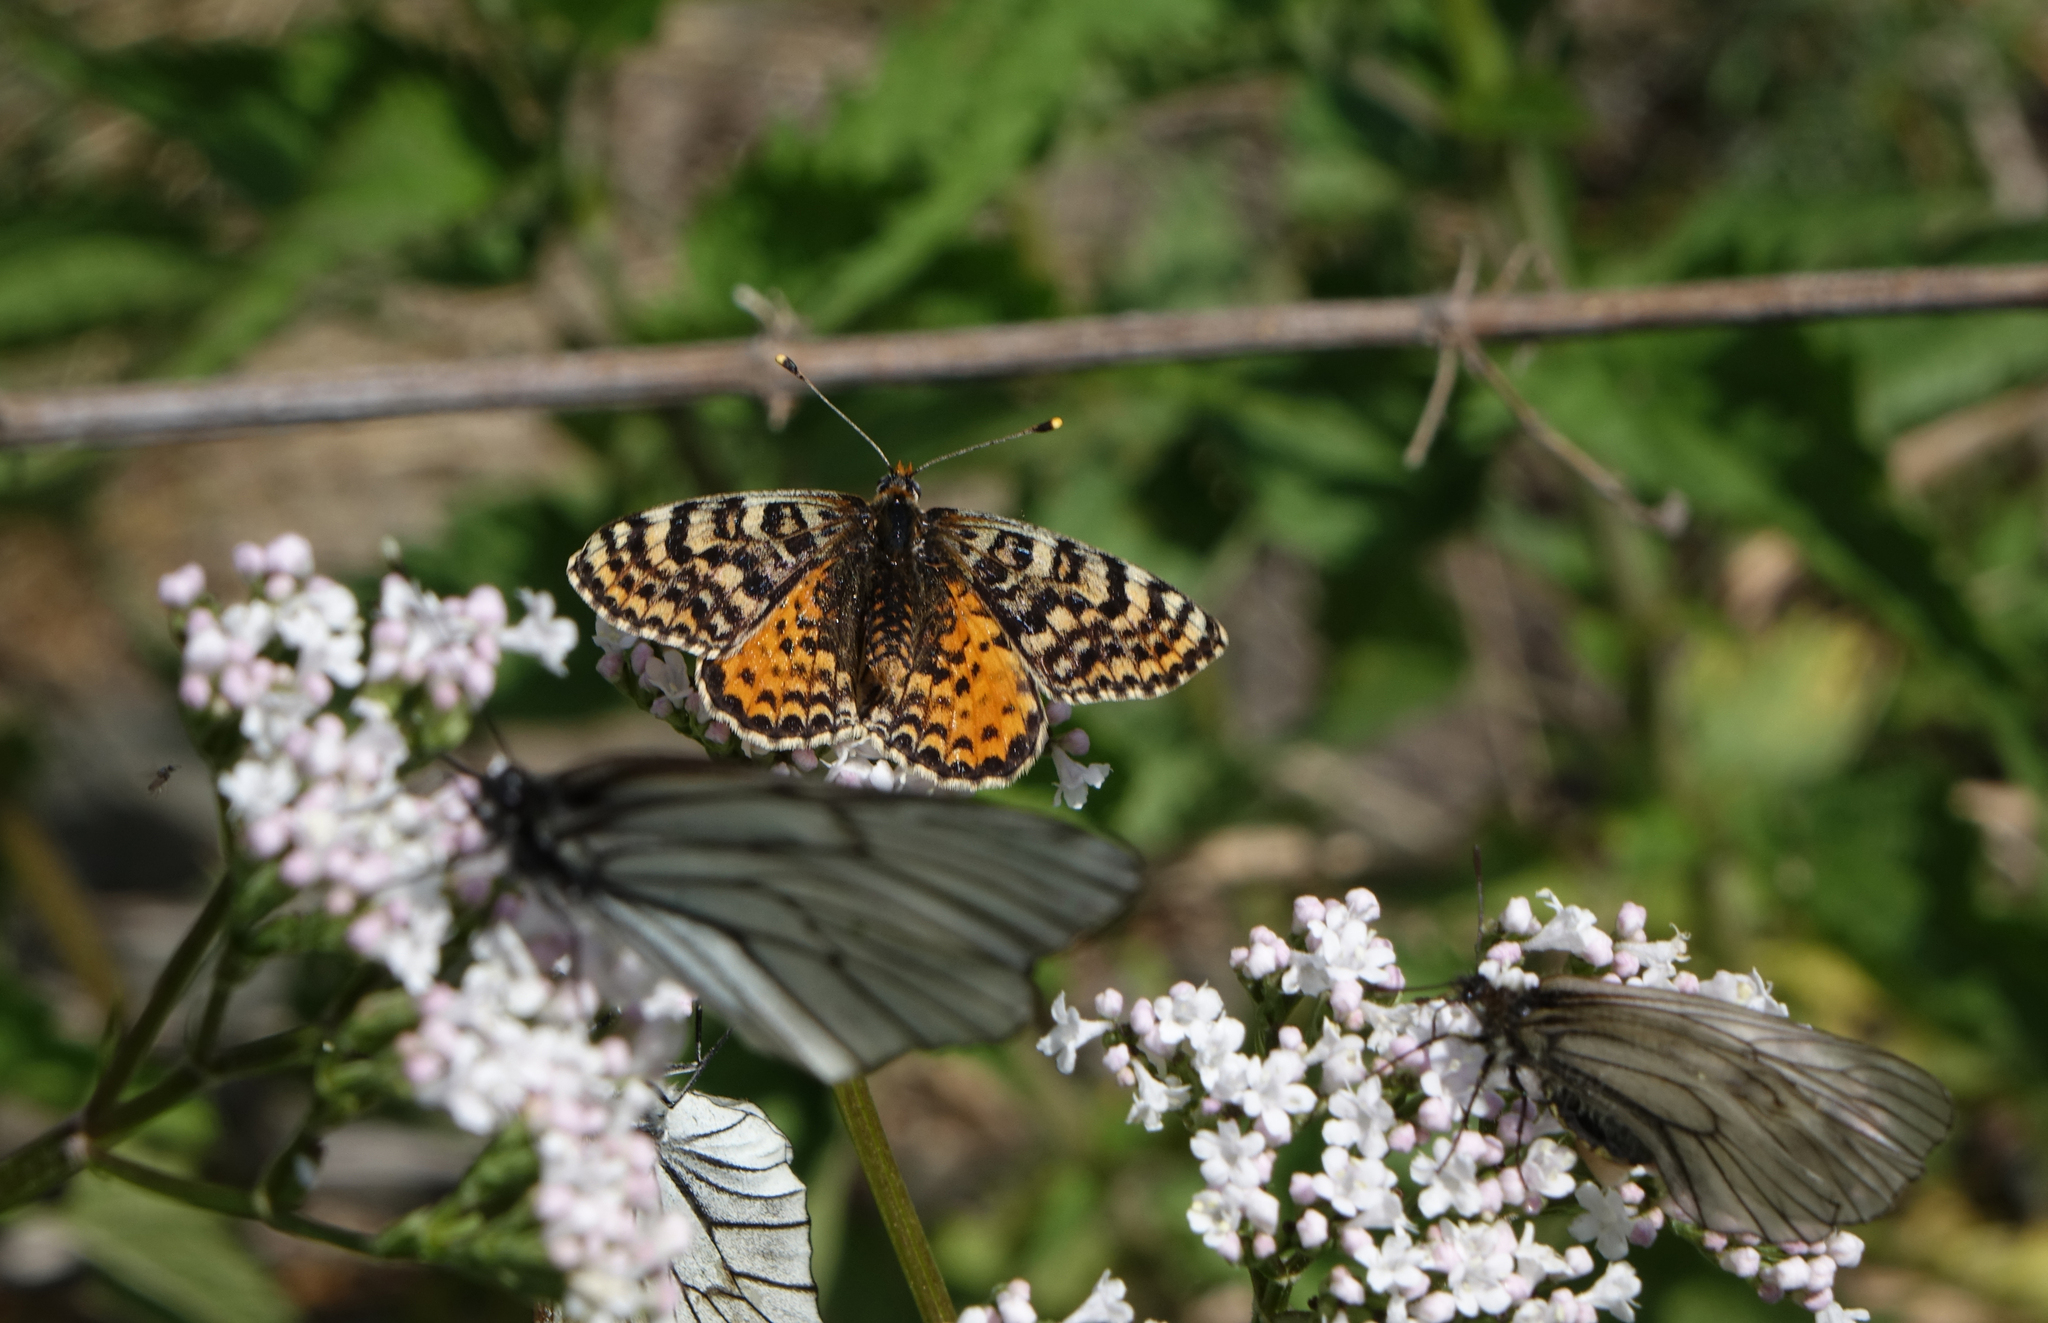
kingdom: Animalia
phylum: Arthropoda
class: Insecta
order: Lepidoptera
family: Nymphalidae
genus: Melitaea
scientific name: Melitaea didyma
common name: Spotted fritillary
